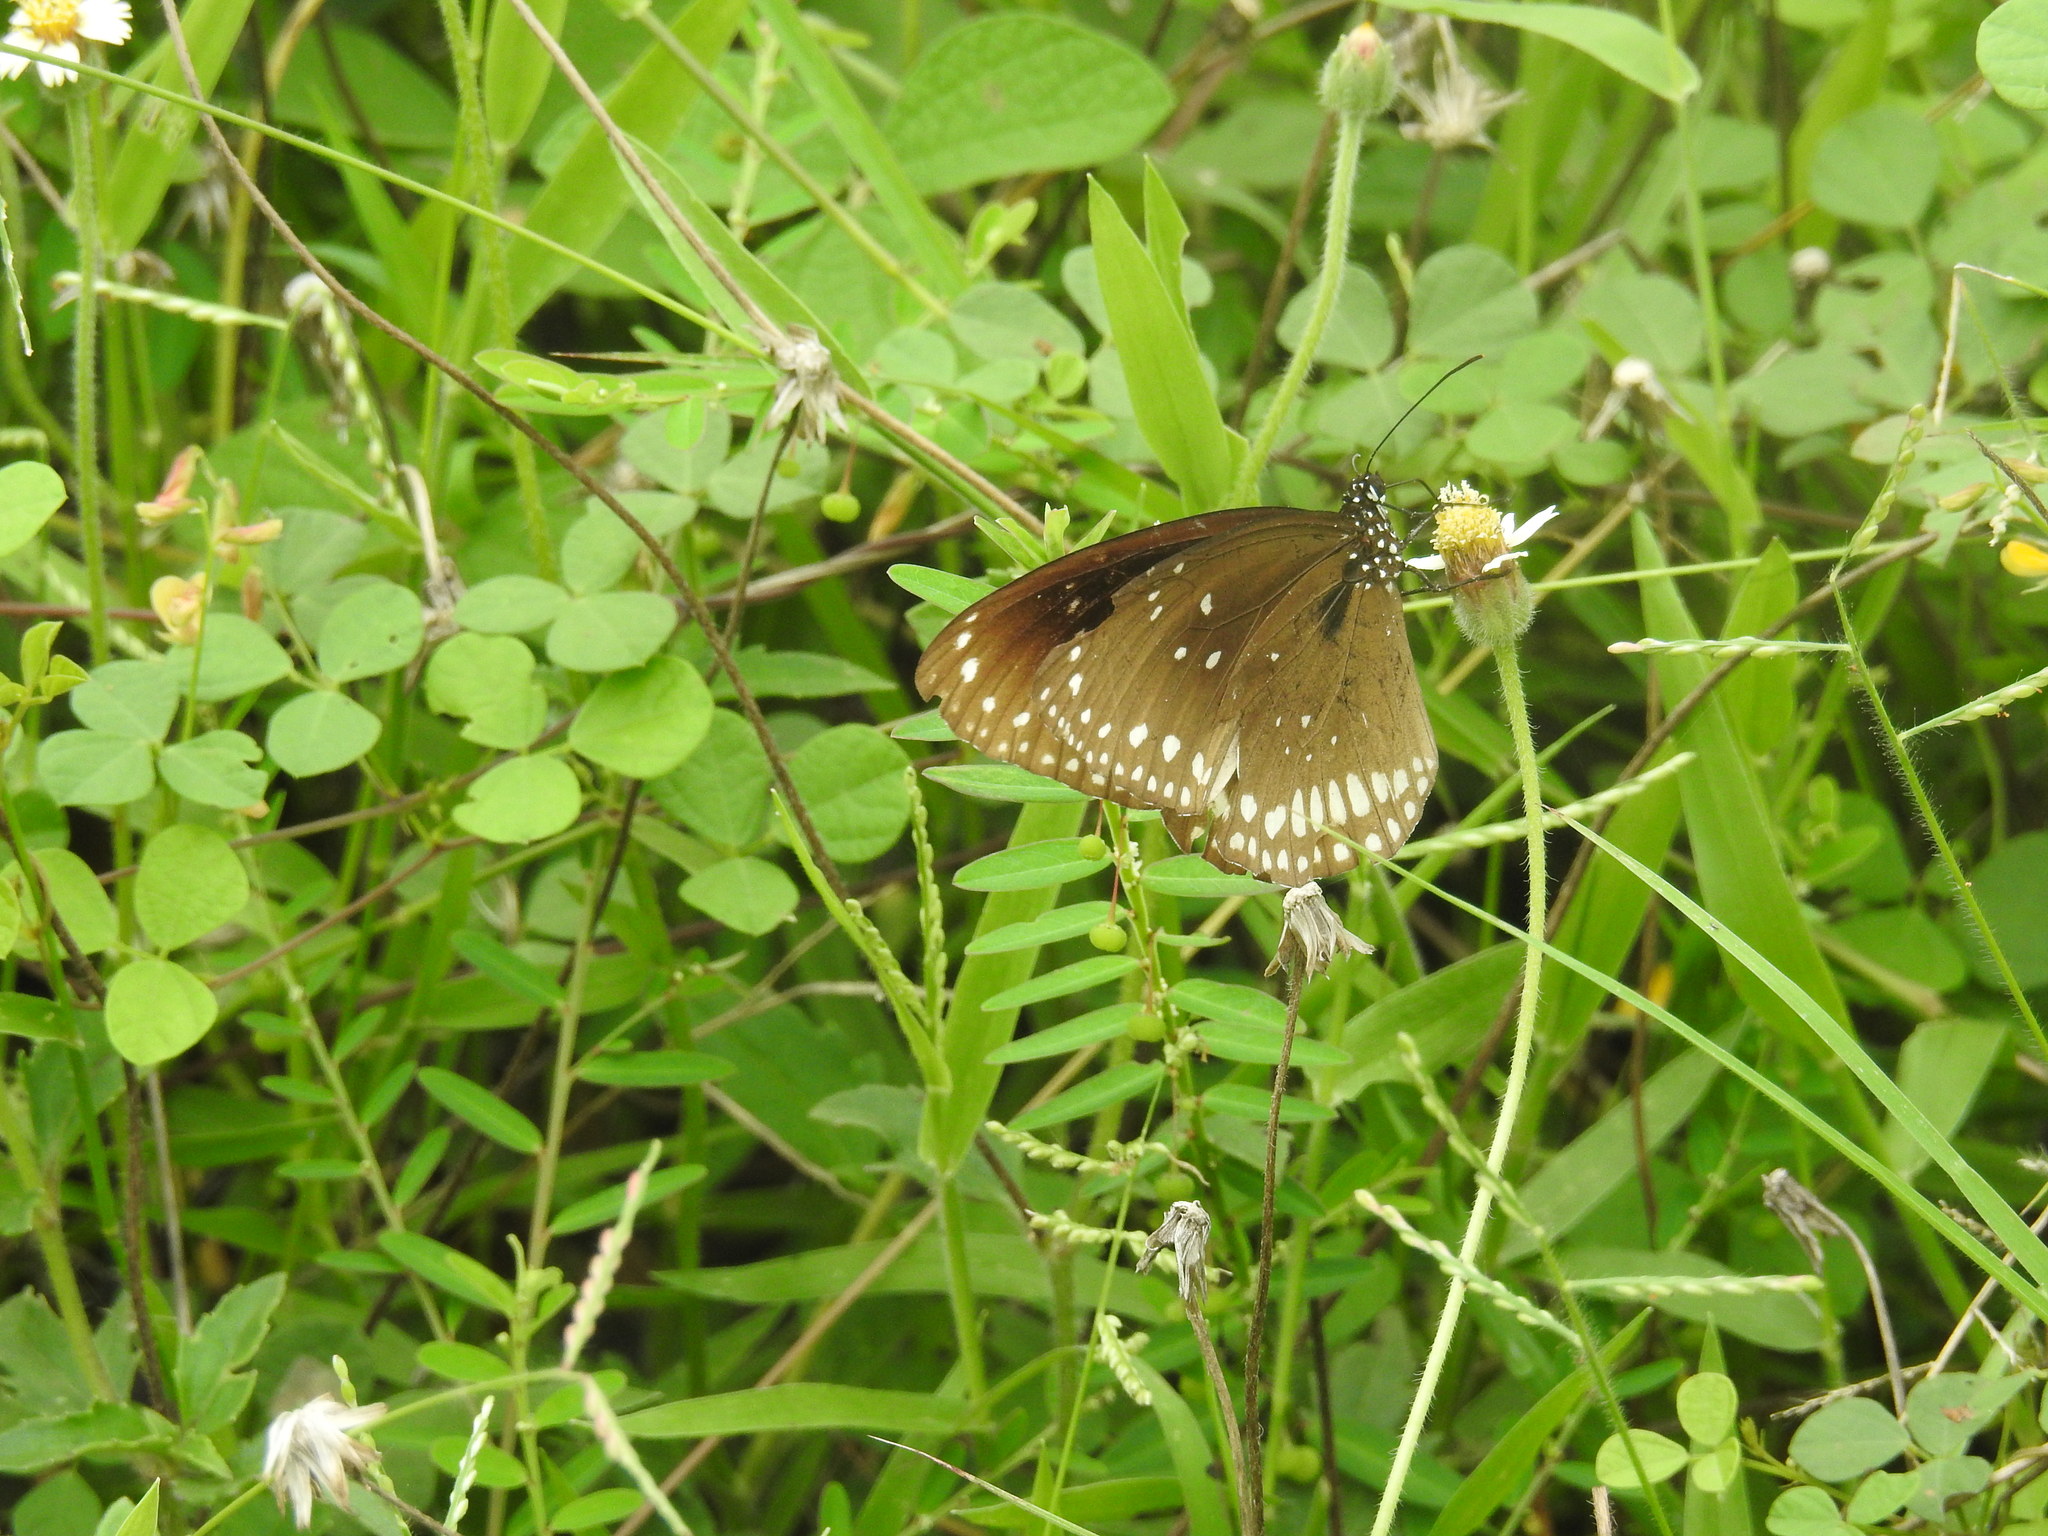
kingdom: Animalia
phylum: Arthropoda
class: Insecta
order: Lepidoptera
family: Nymphalidae
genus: Euploea
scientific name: Euploea sylvester
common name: Double-branded crow butterfly
